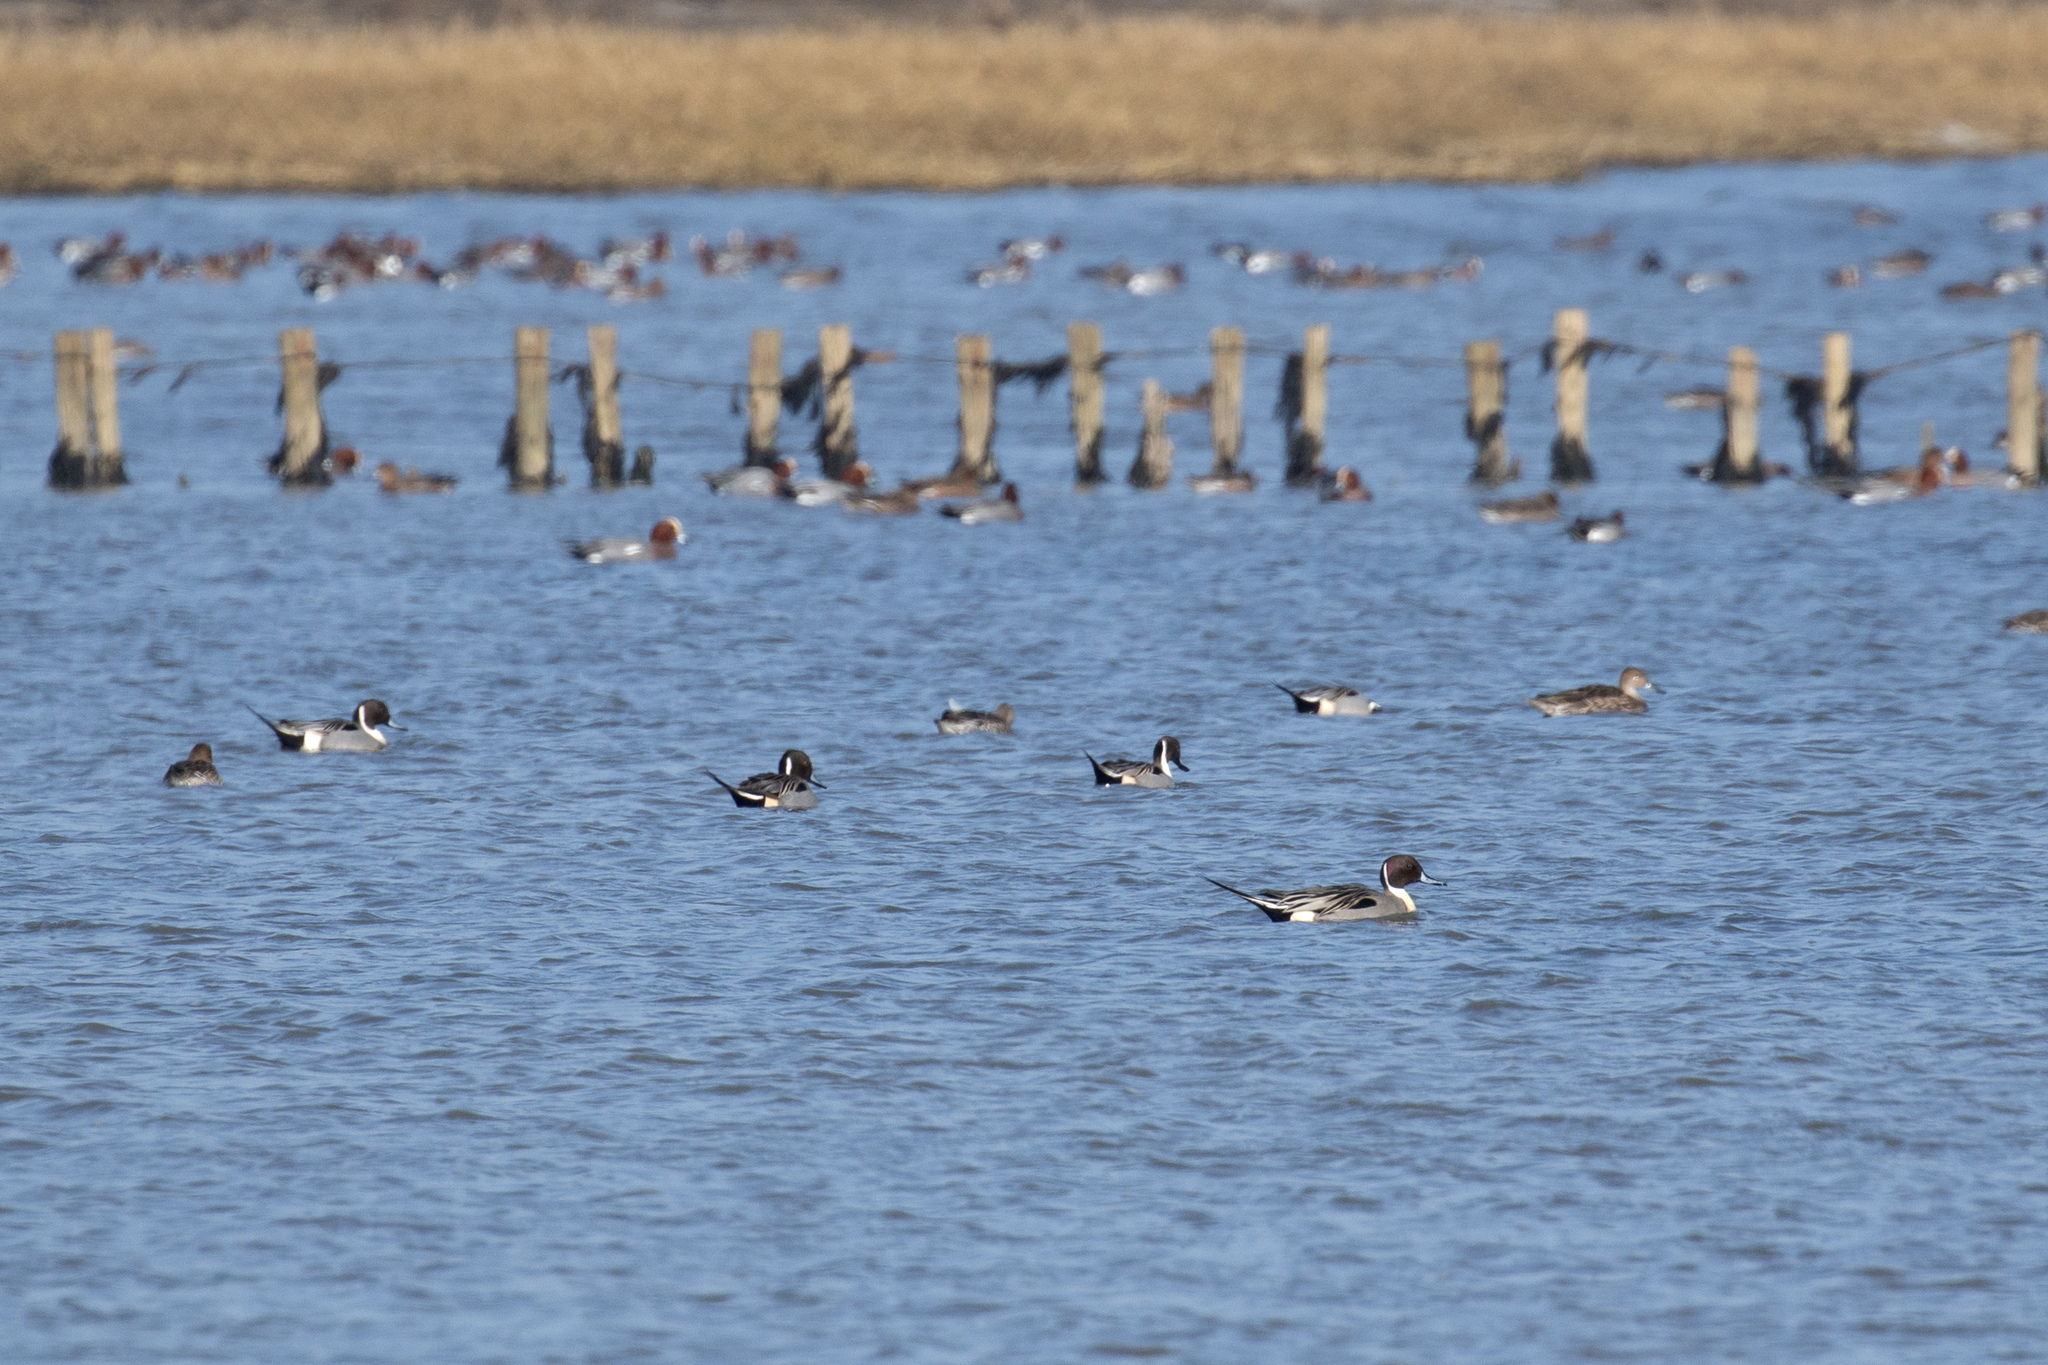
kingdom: Animalia
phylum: Chordata
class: Aves
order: Anseriformes
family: Anatidae
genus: Anas
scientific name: Anas acuta
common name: Northern pintail
